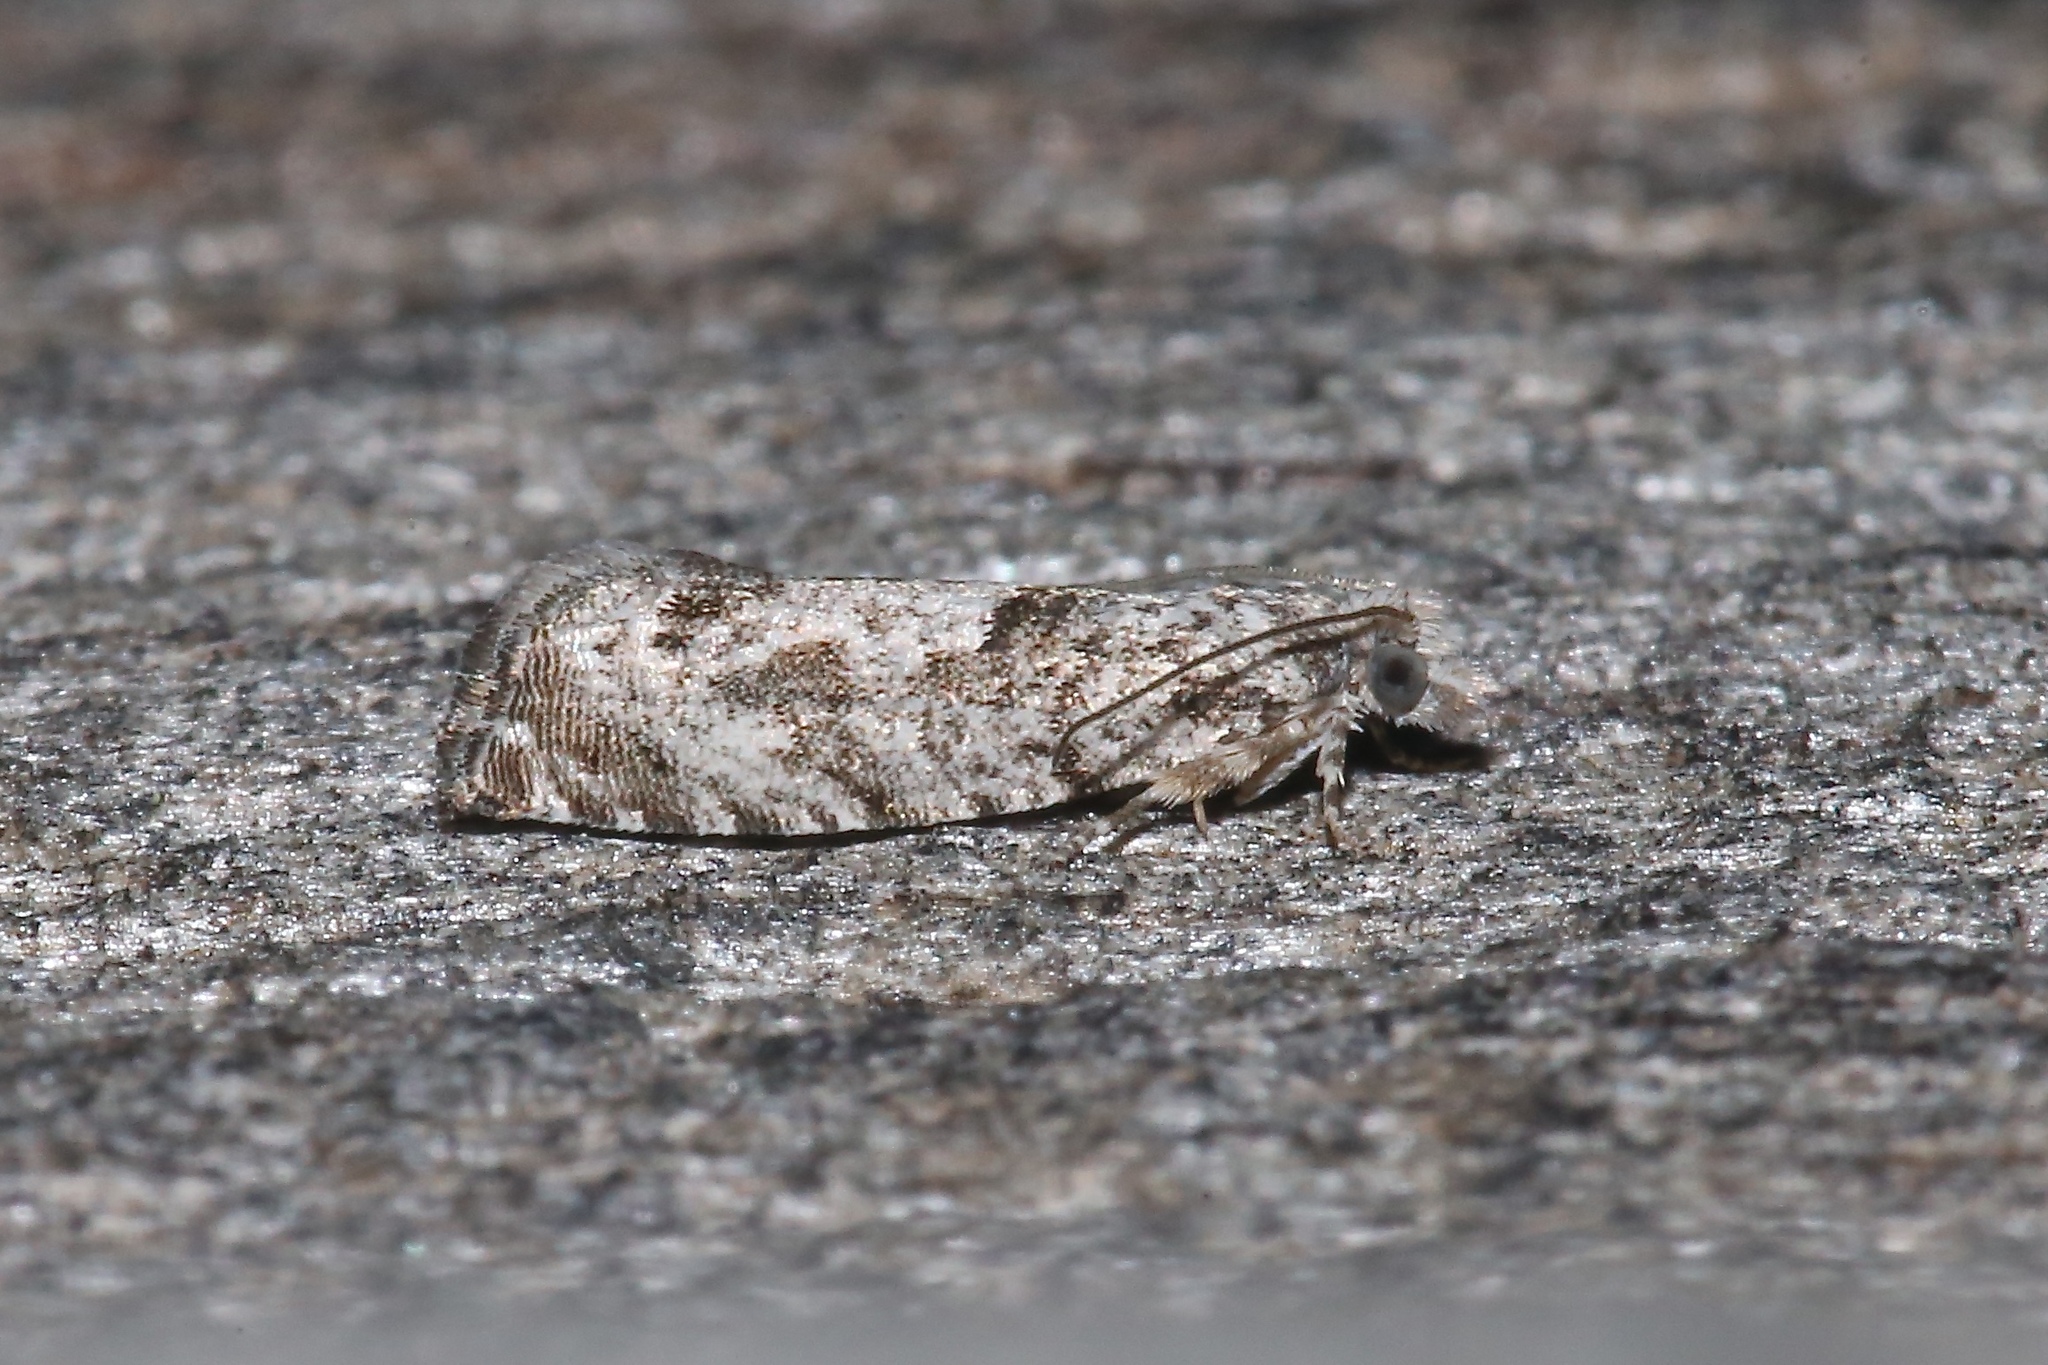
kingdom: Animalia
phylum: Arthropoda
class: Insecta
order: Lepidoptera
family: Tortricidae
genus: Catastega
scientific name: Catastega aceriella
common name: Maple trumpet skeletonizer moth
